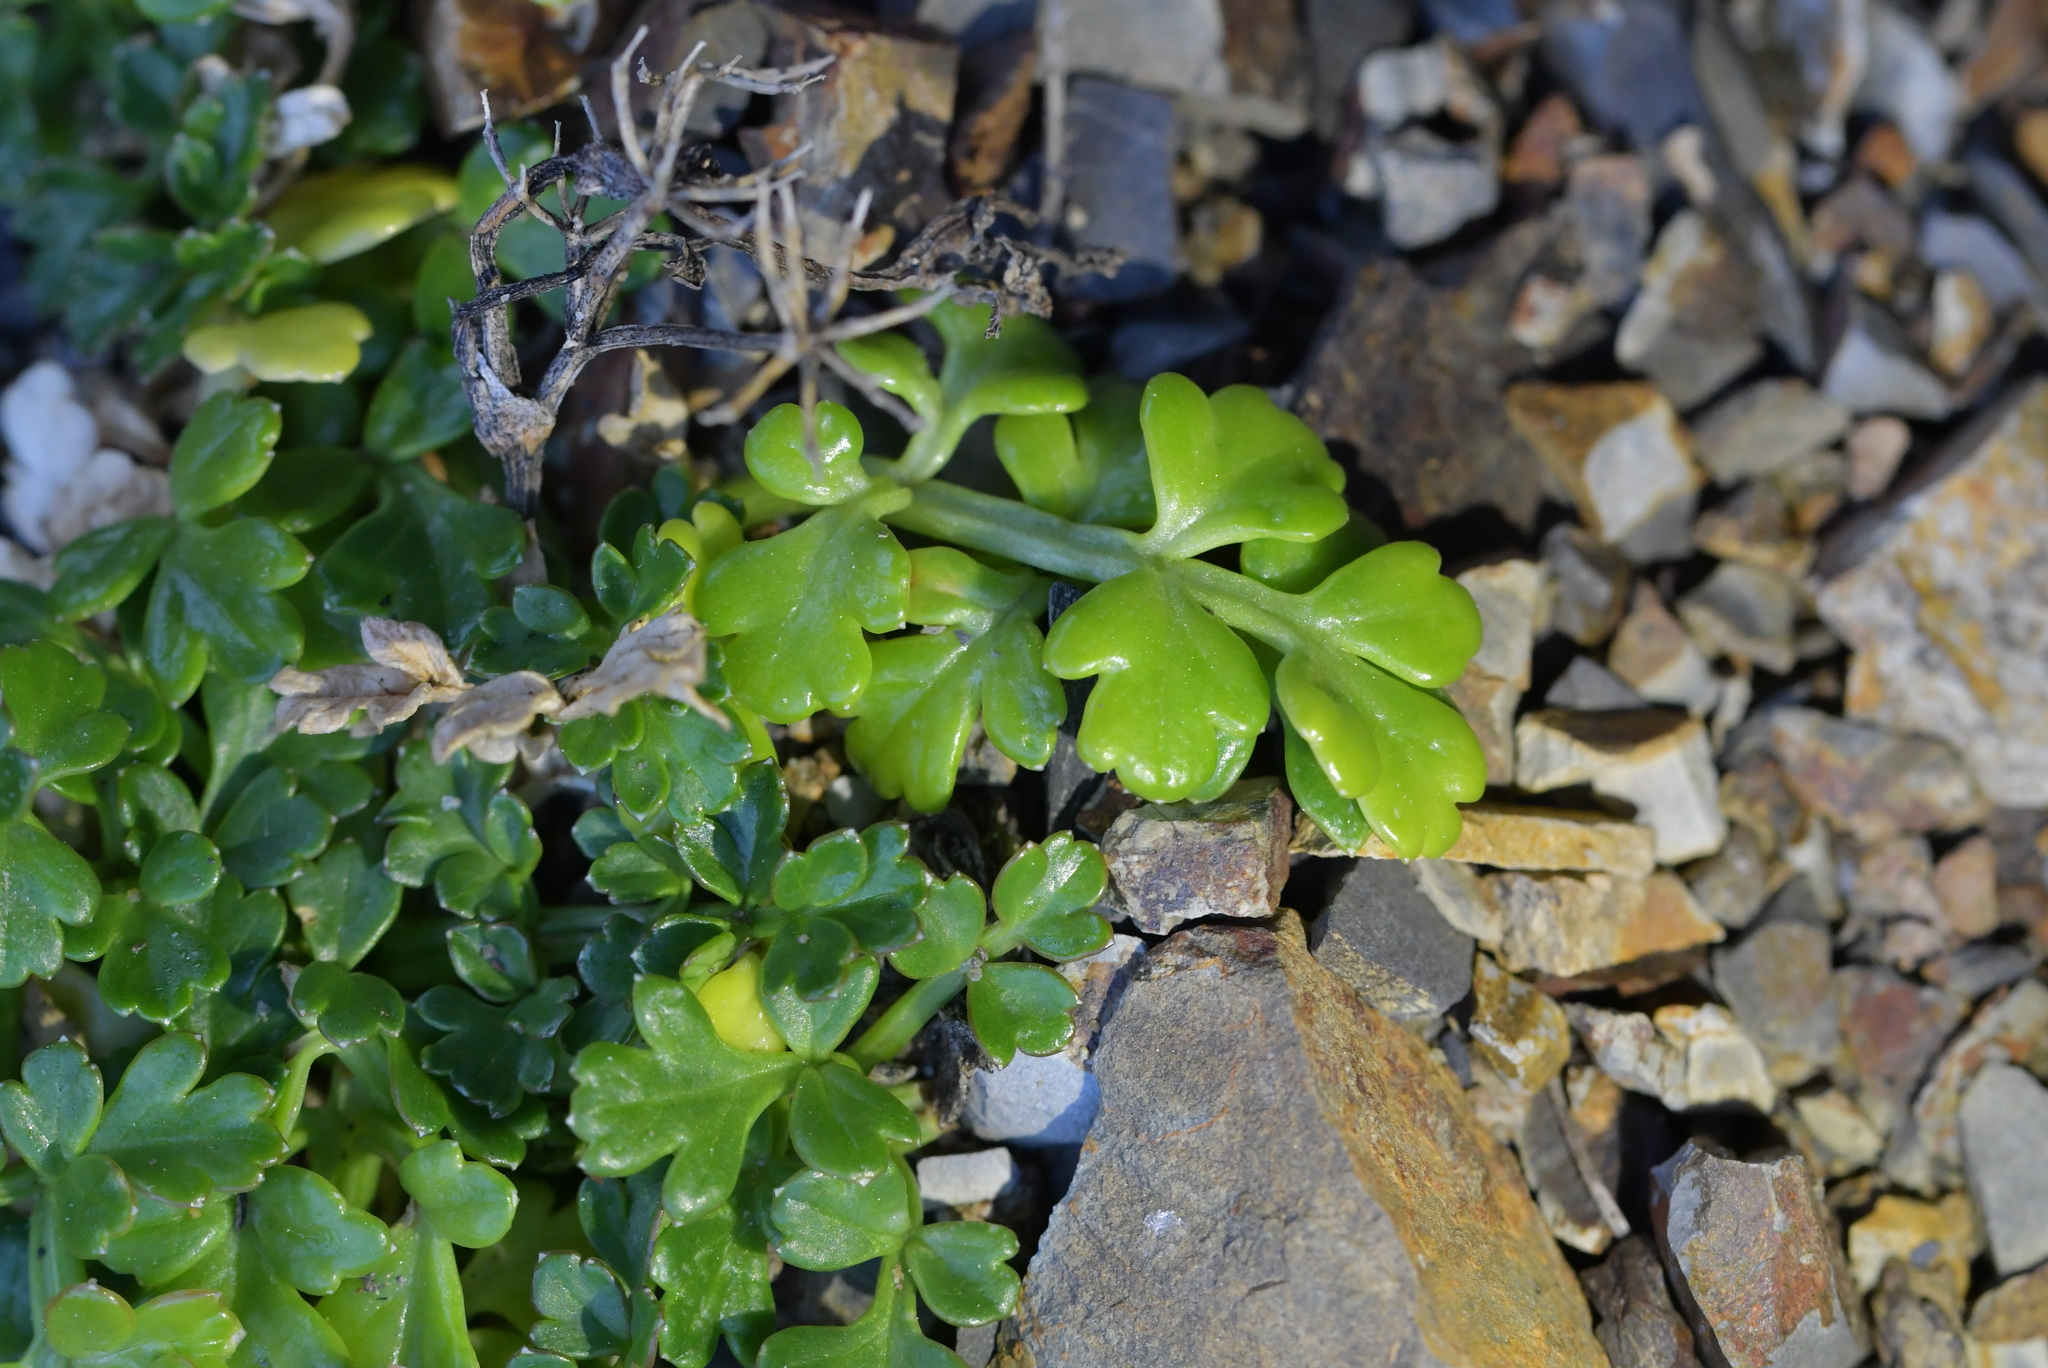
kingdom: Plantae
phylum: Tracheophyta
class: Magnoliopsida
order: Apiales
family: Apiaceae
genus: Apium
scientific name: Apium prostratum
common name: Prostrate marshwort
